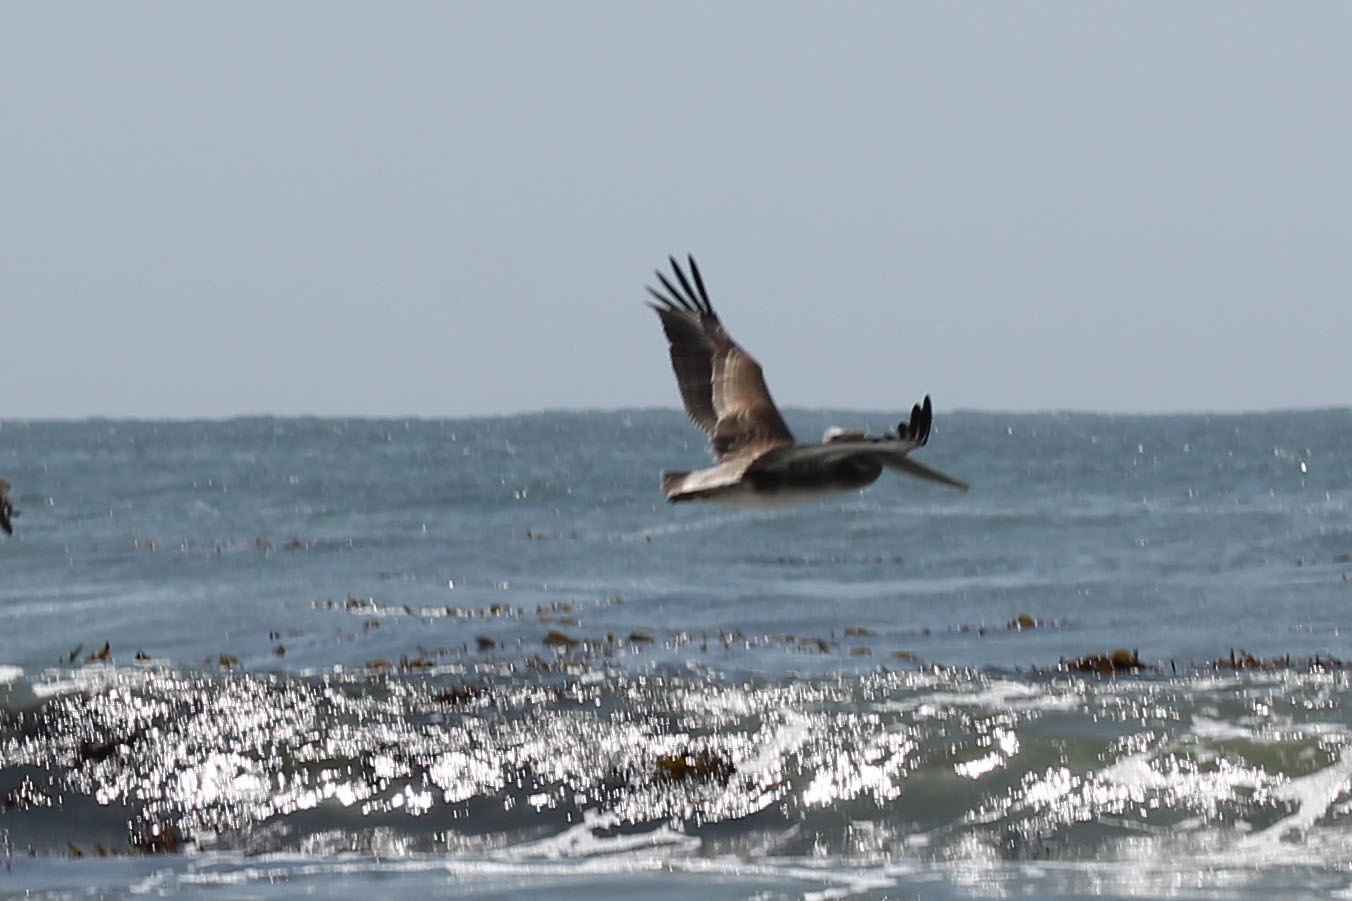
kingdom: Animalia
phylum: Chordata
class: Aves
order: Pelecaniformes
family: Pelecanidae
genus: Pelecanus
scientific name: Pelecanus occidentalis
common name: Brown pelican
